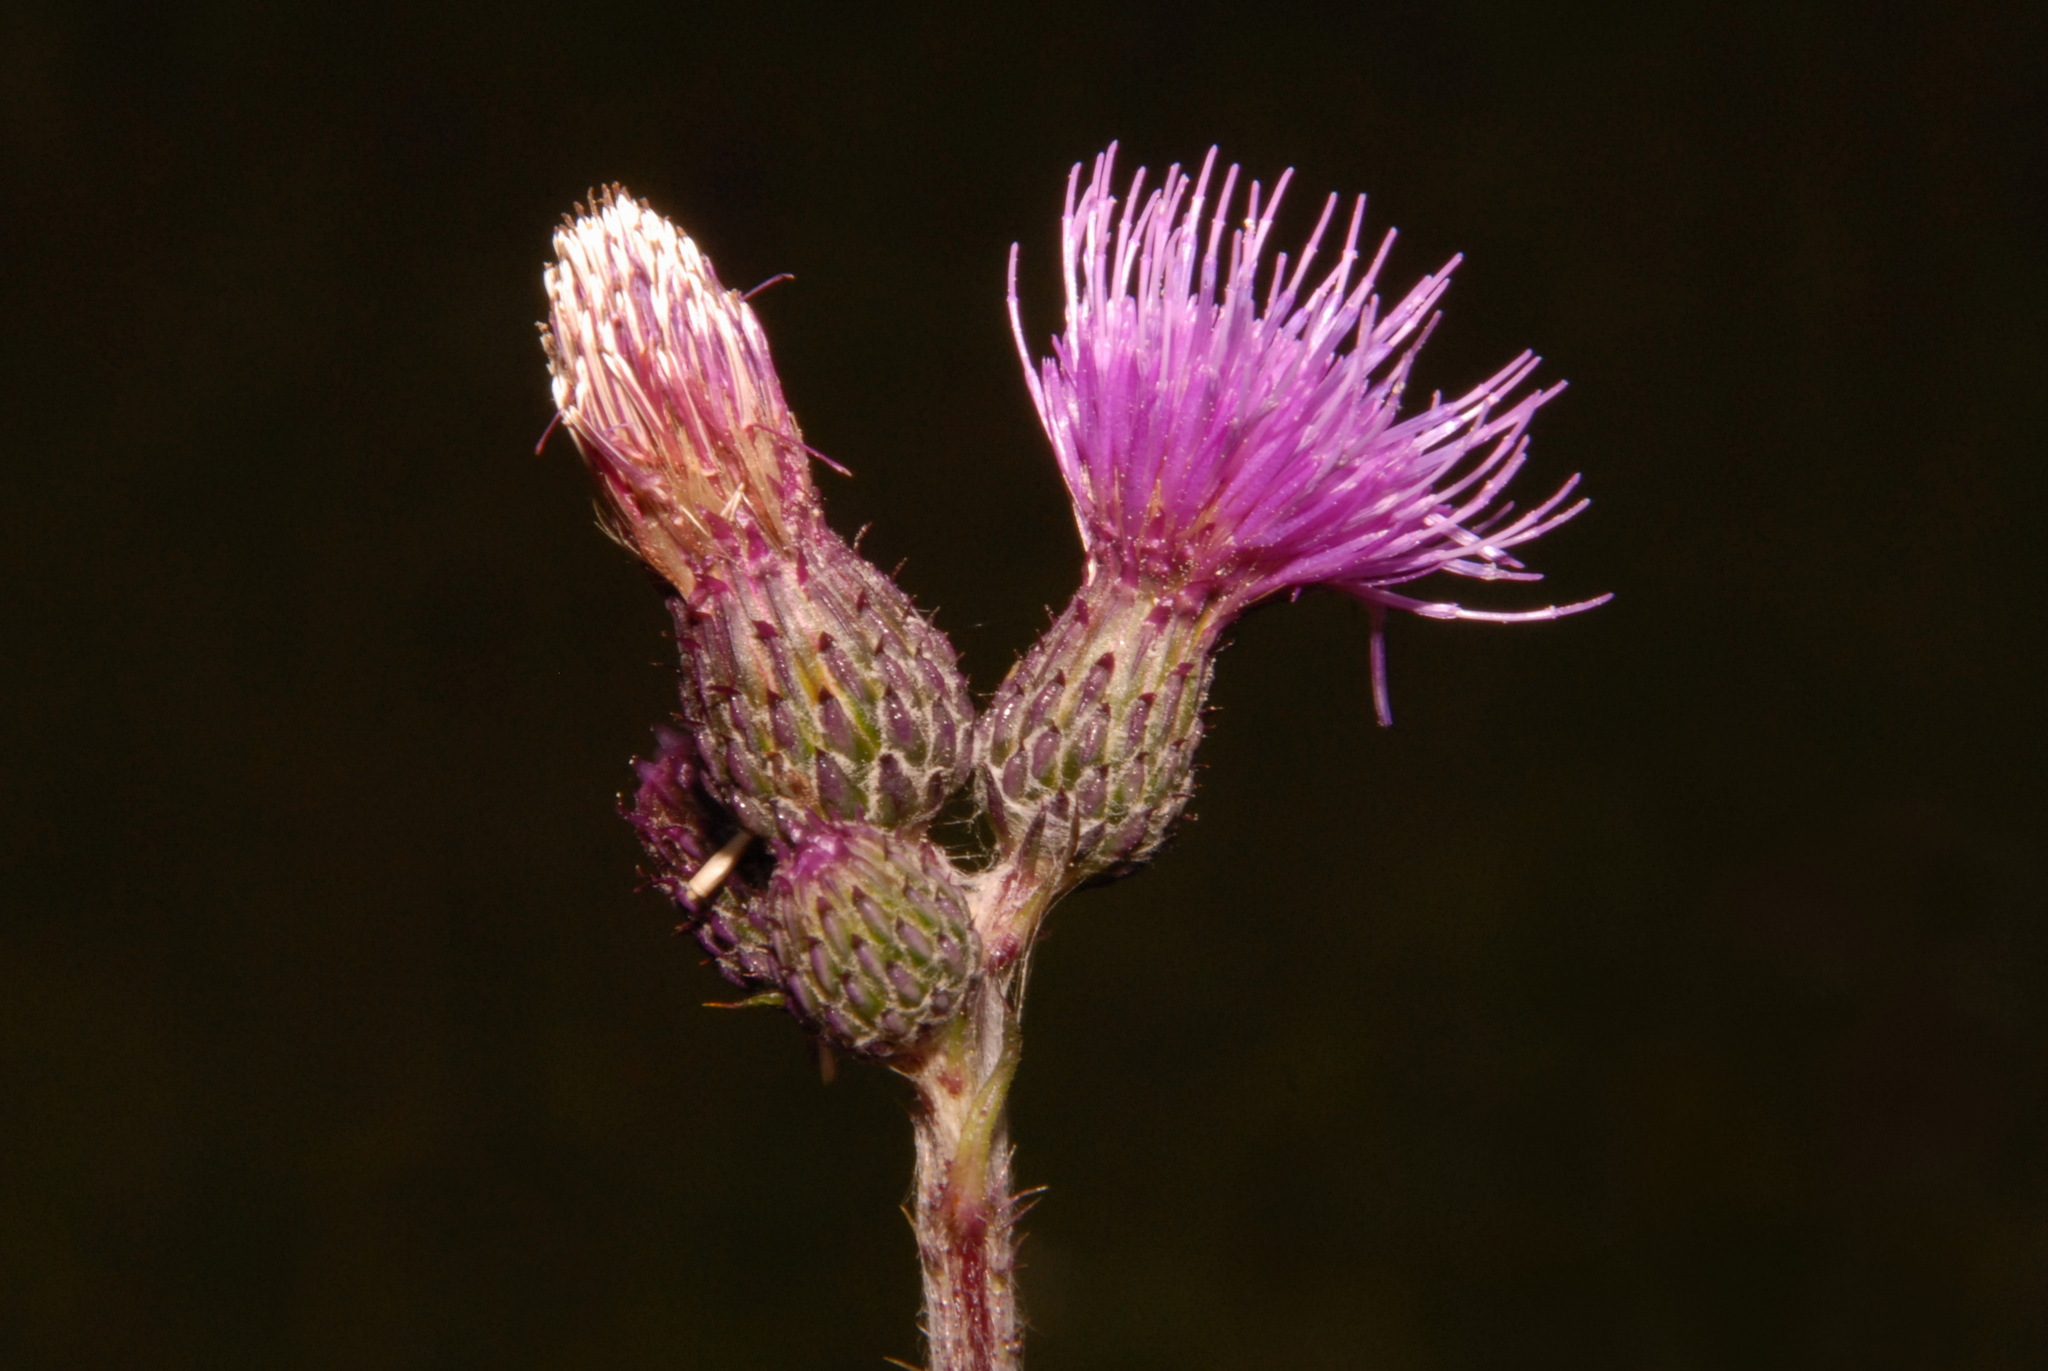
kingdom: Plantae
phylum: Tracheophyta
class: Magnoliopsida
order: Asterales
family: Asteraceae
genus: Cirsium
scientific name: Cirsium palustre
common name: Marsh thistle
